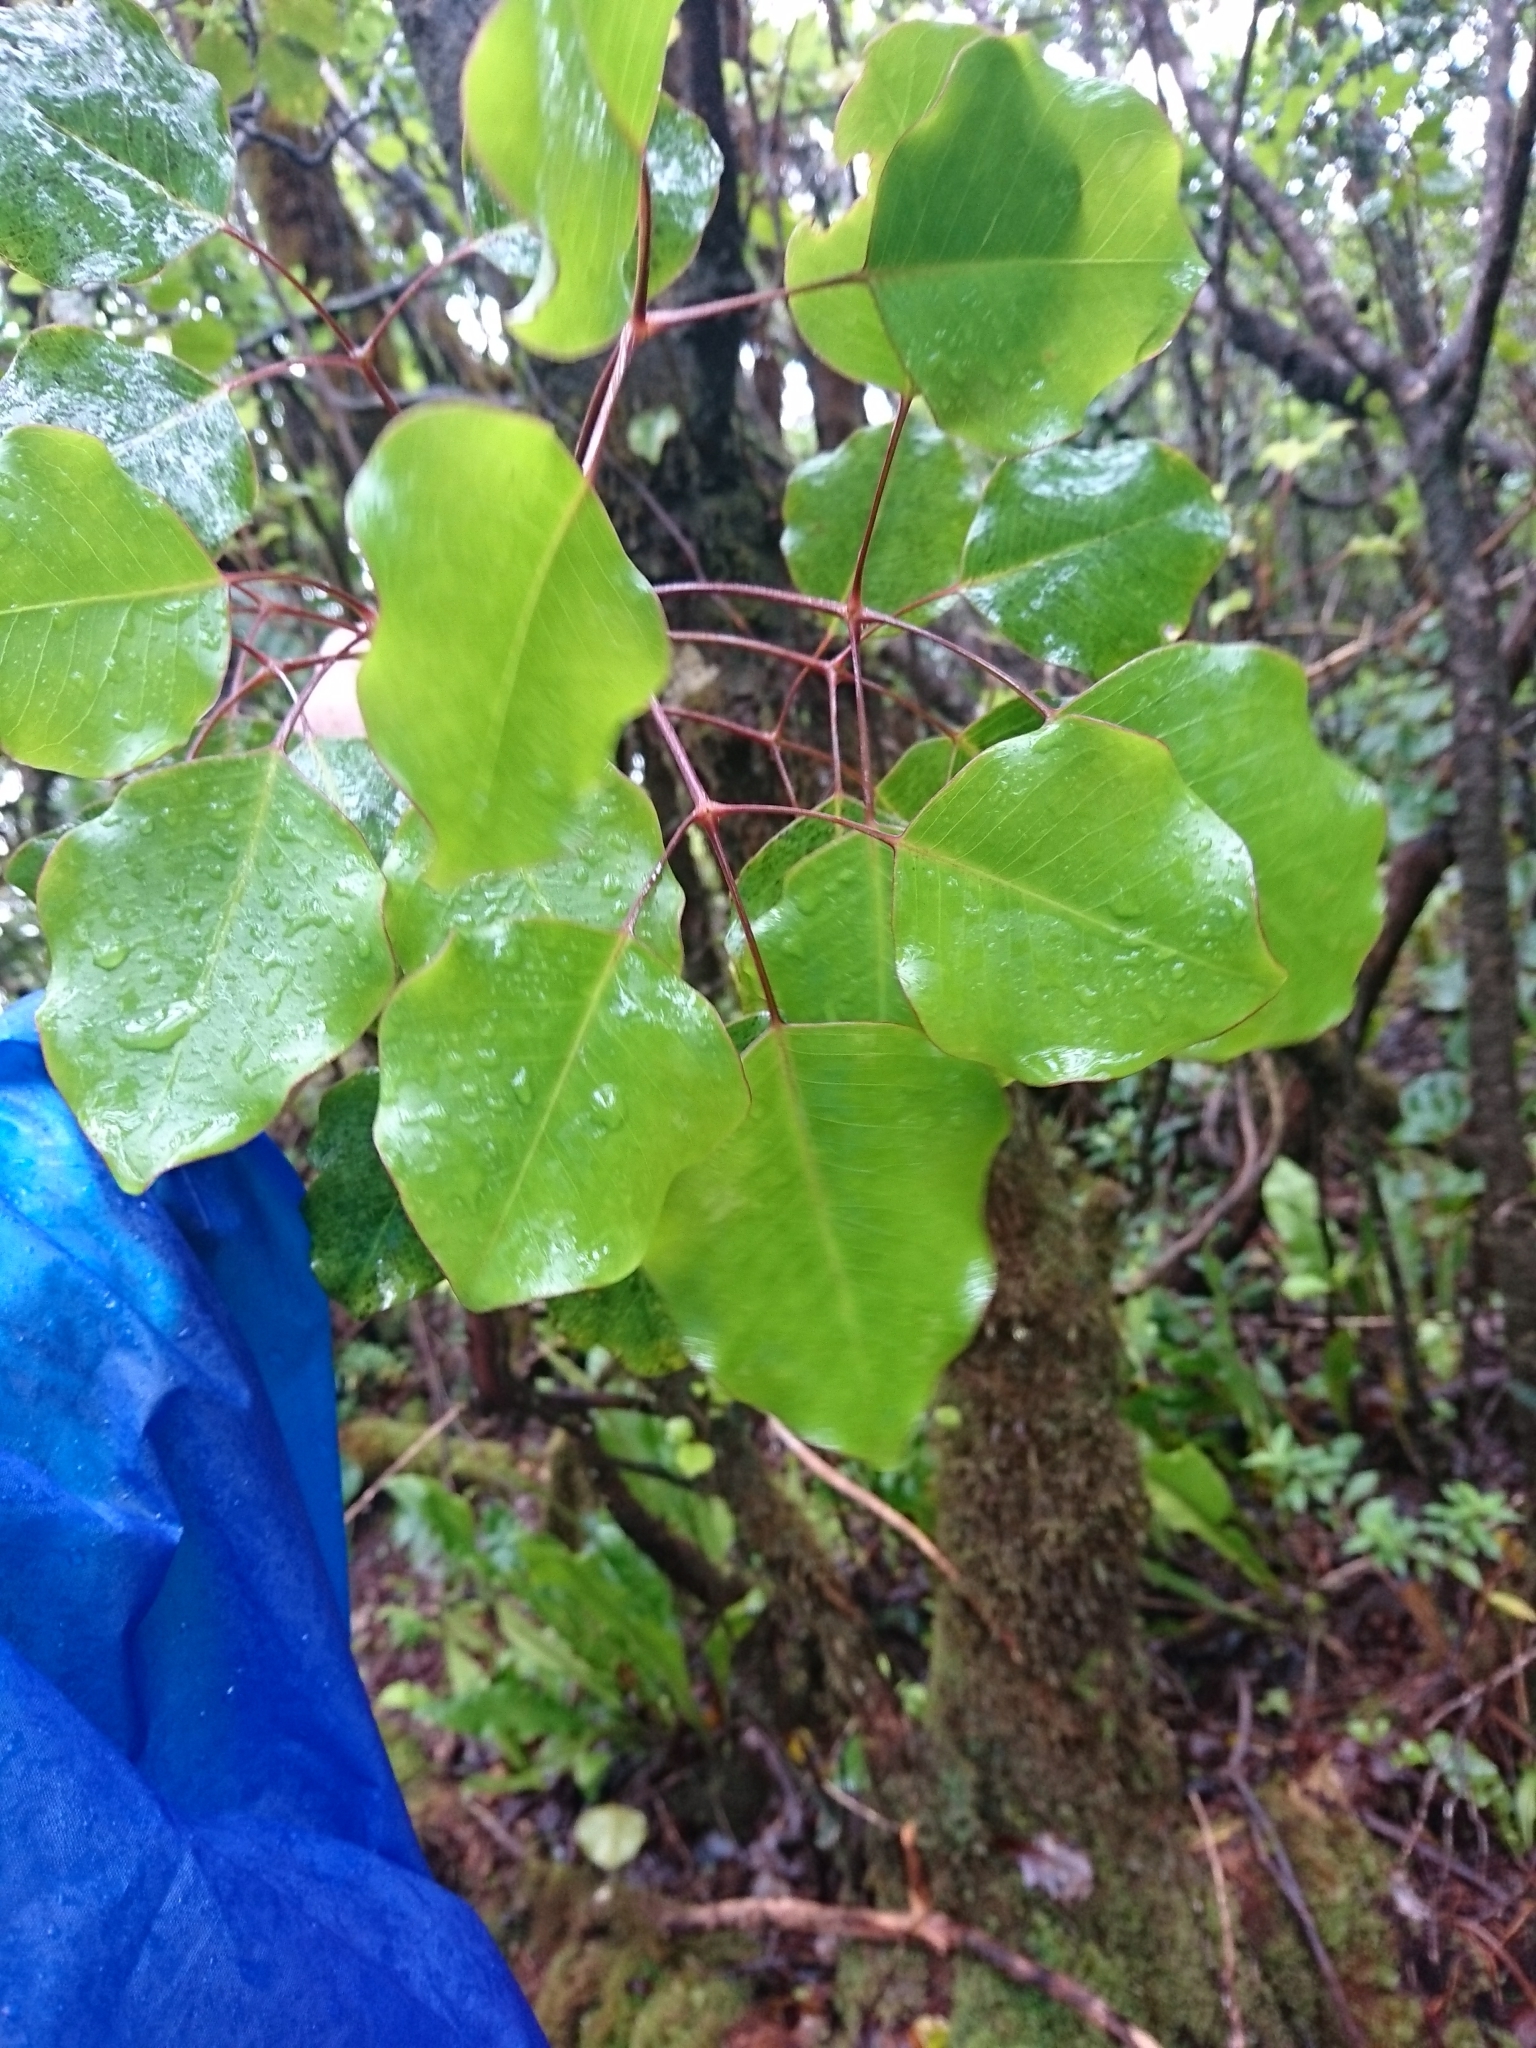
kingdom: Plantae
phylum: Tracheophyta
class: Magnoliopsida
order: Apiales
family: Araliaceae
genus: Cheirodendron
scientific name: Cheirodendron trigynum
